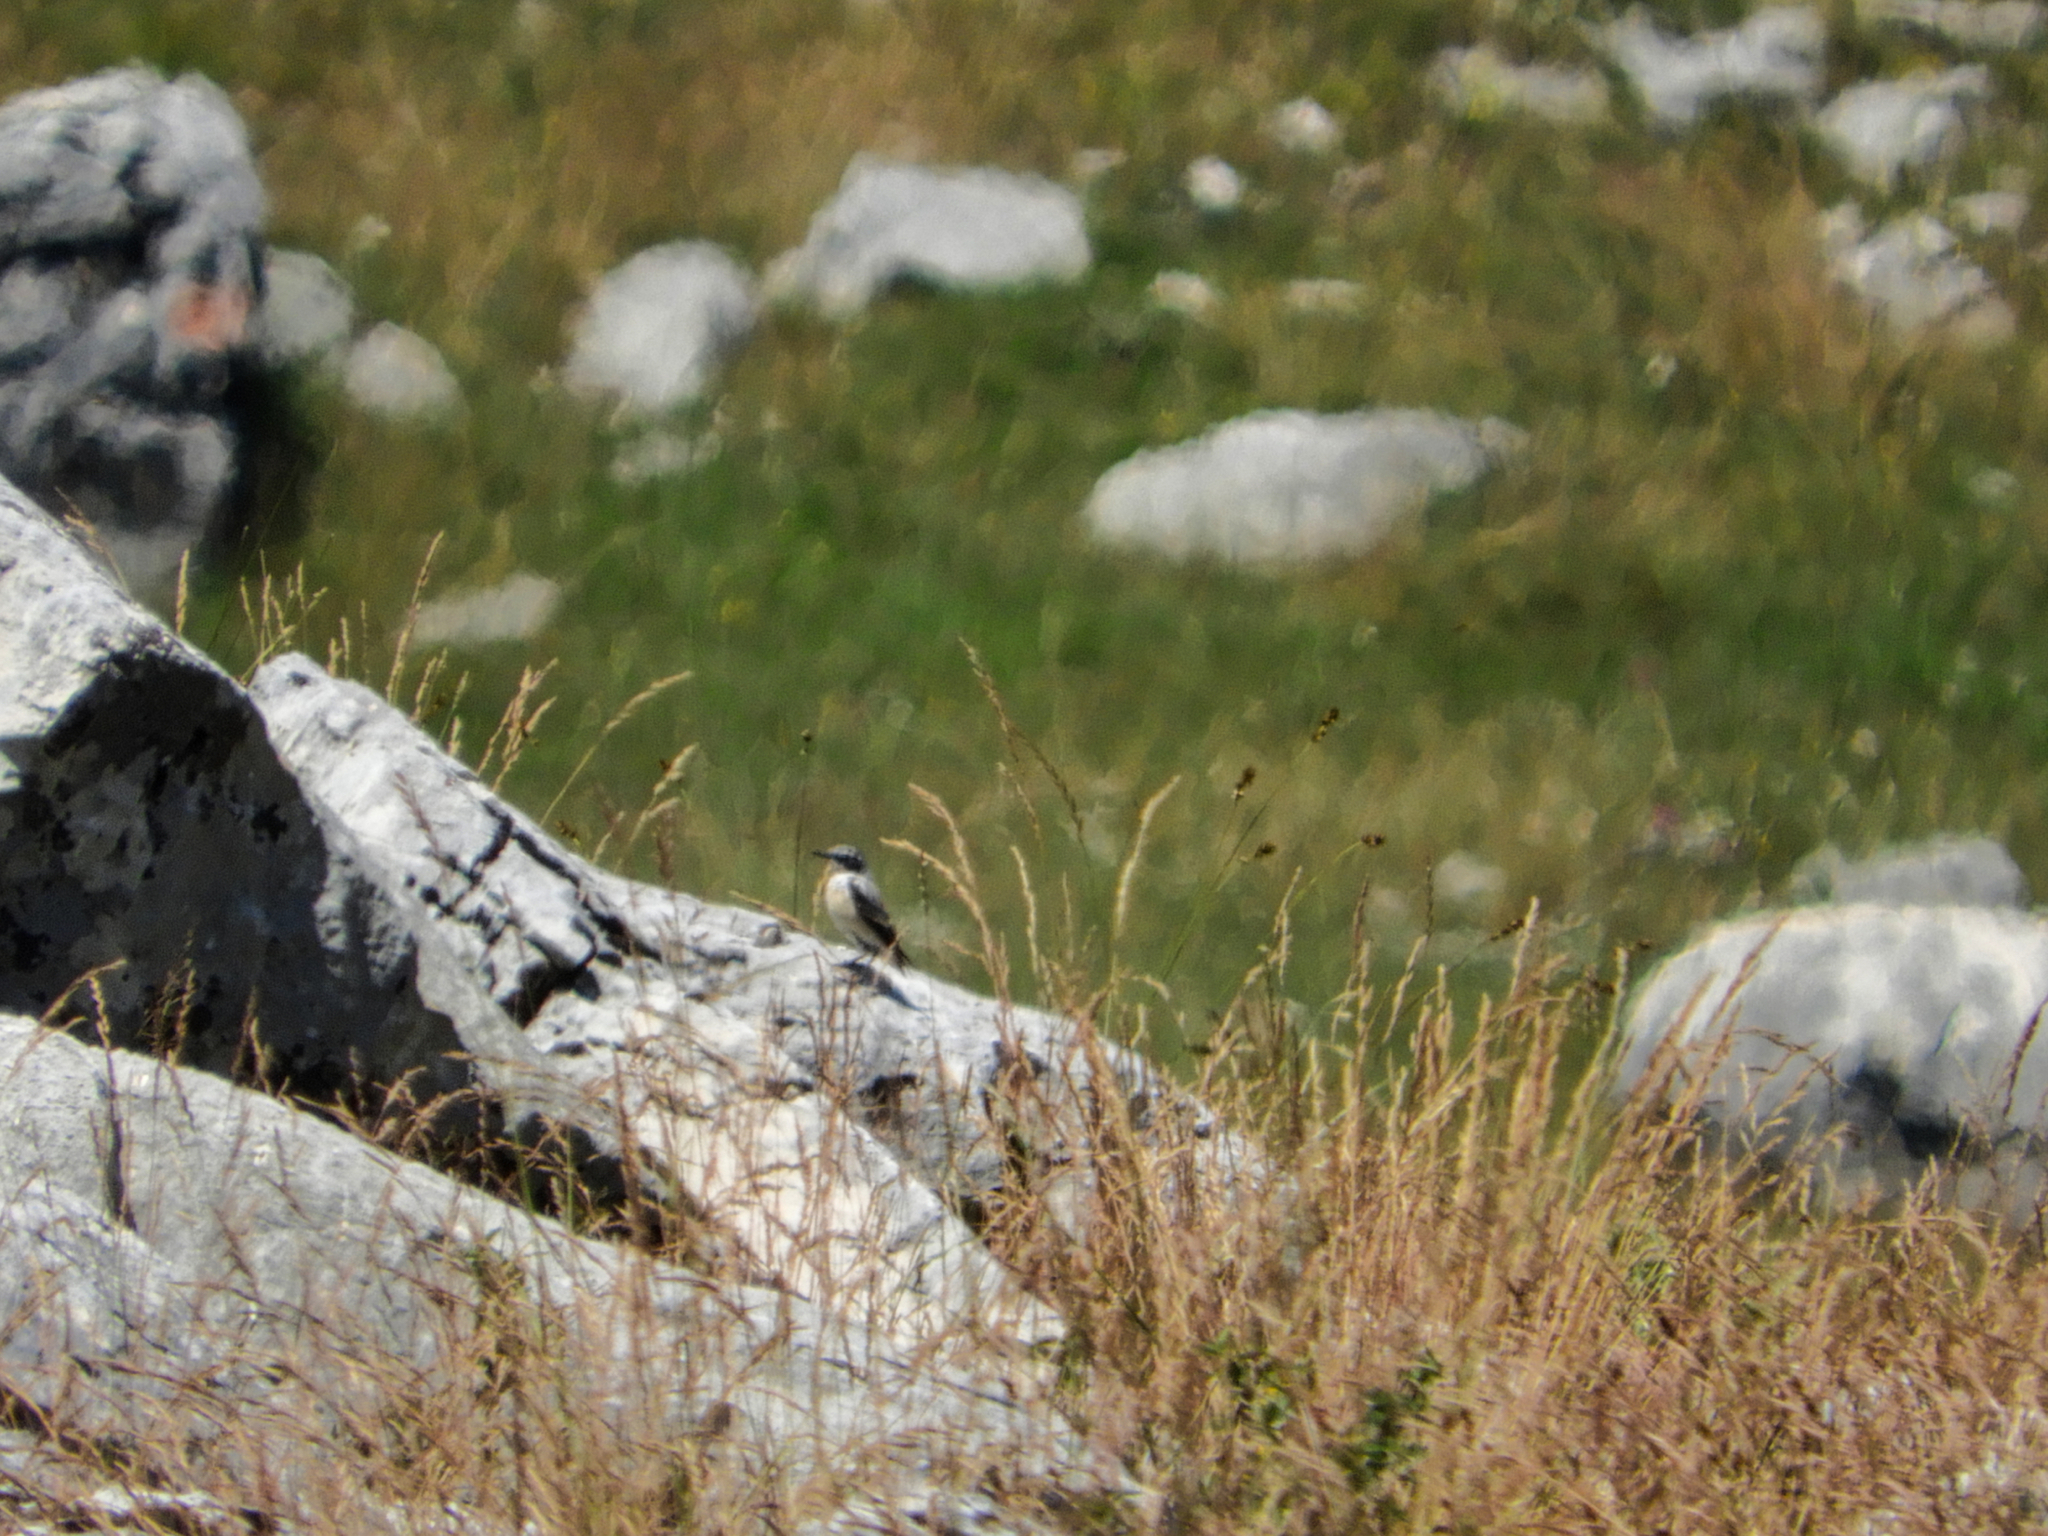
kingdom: Animalia
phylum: Chordata
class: Aves
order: Passeriformes
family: Muscicapidae
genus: Oenanthe
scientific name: Oenanthe oenanthe
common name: Northern wheatear
